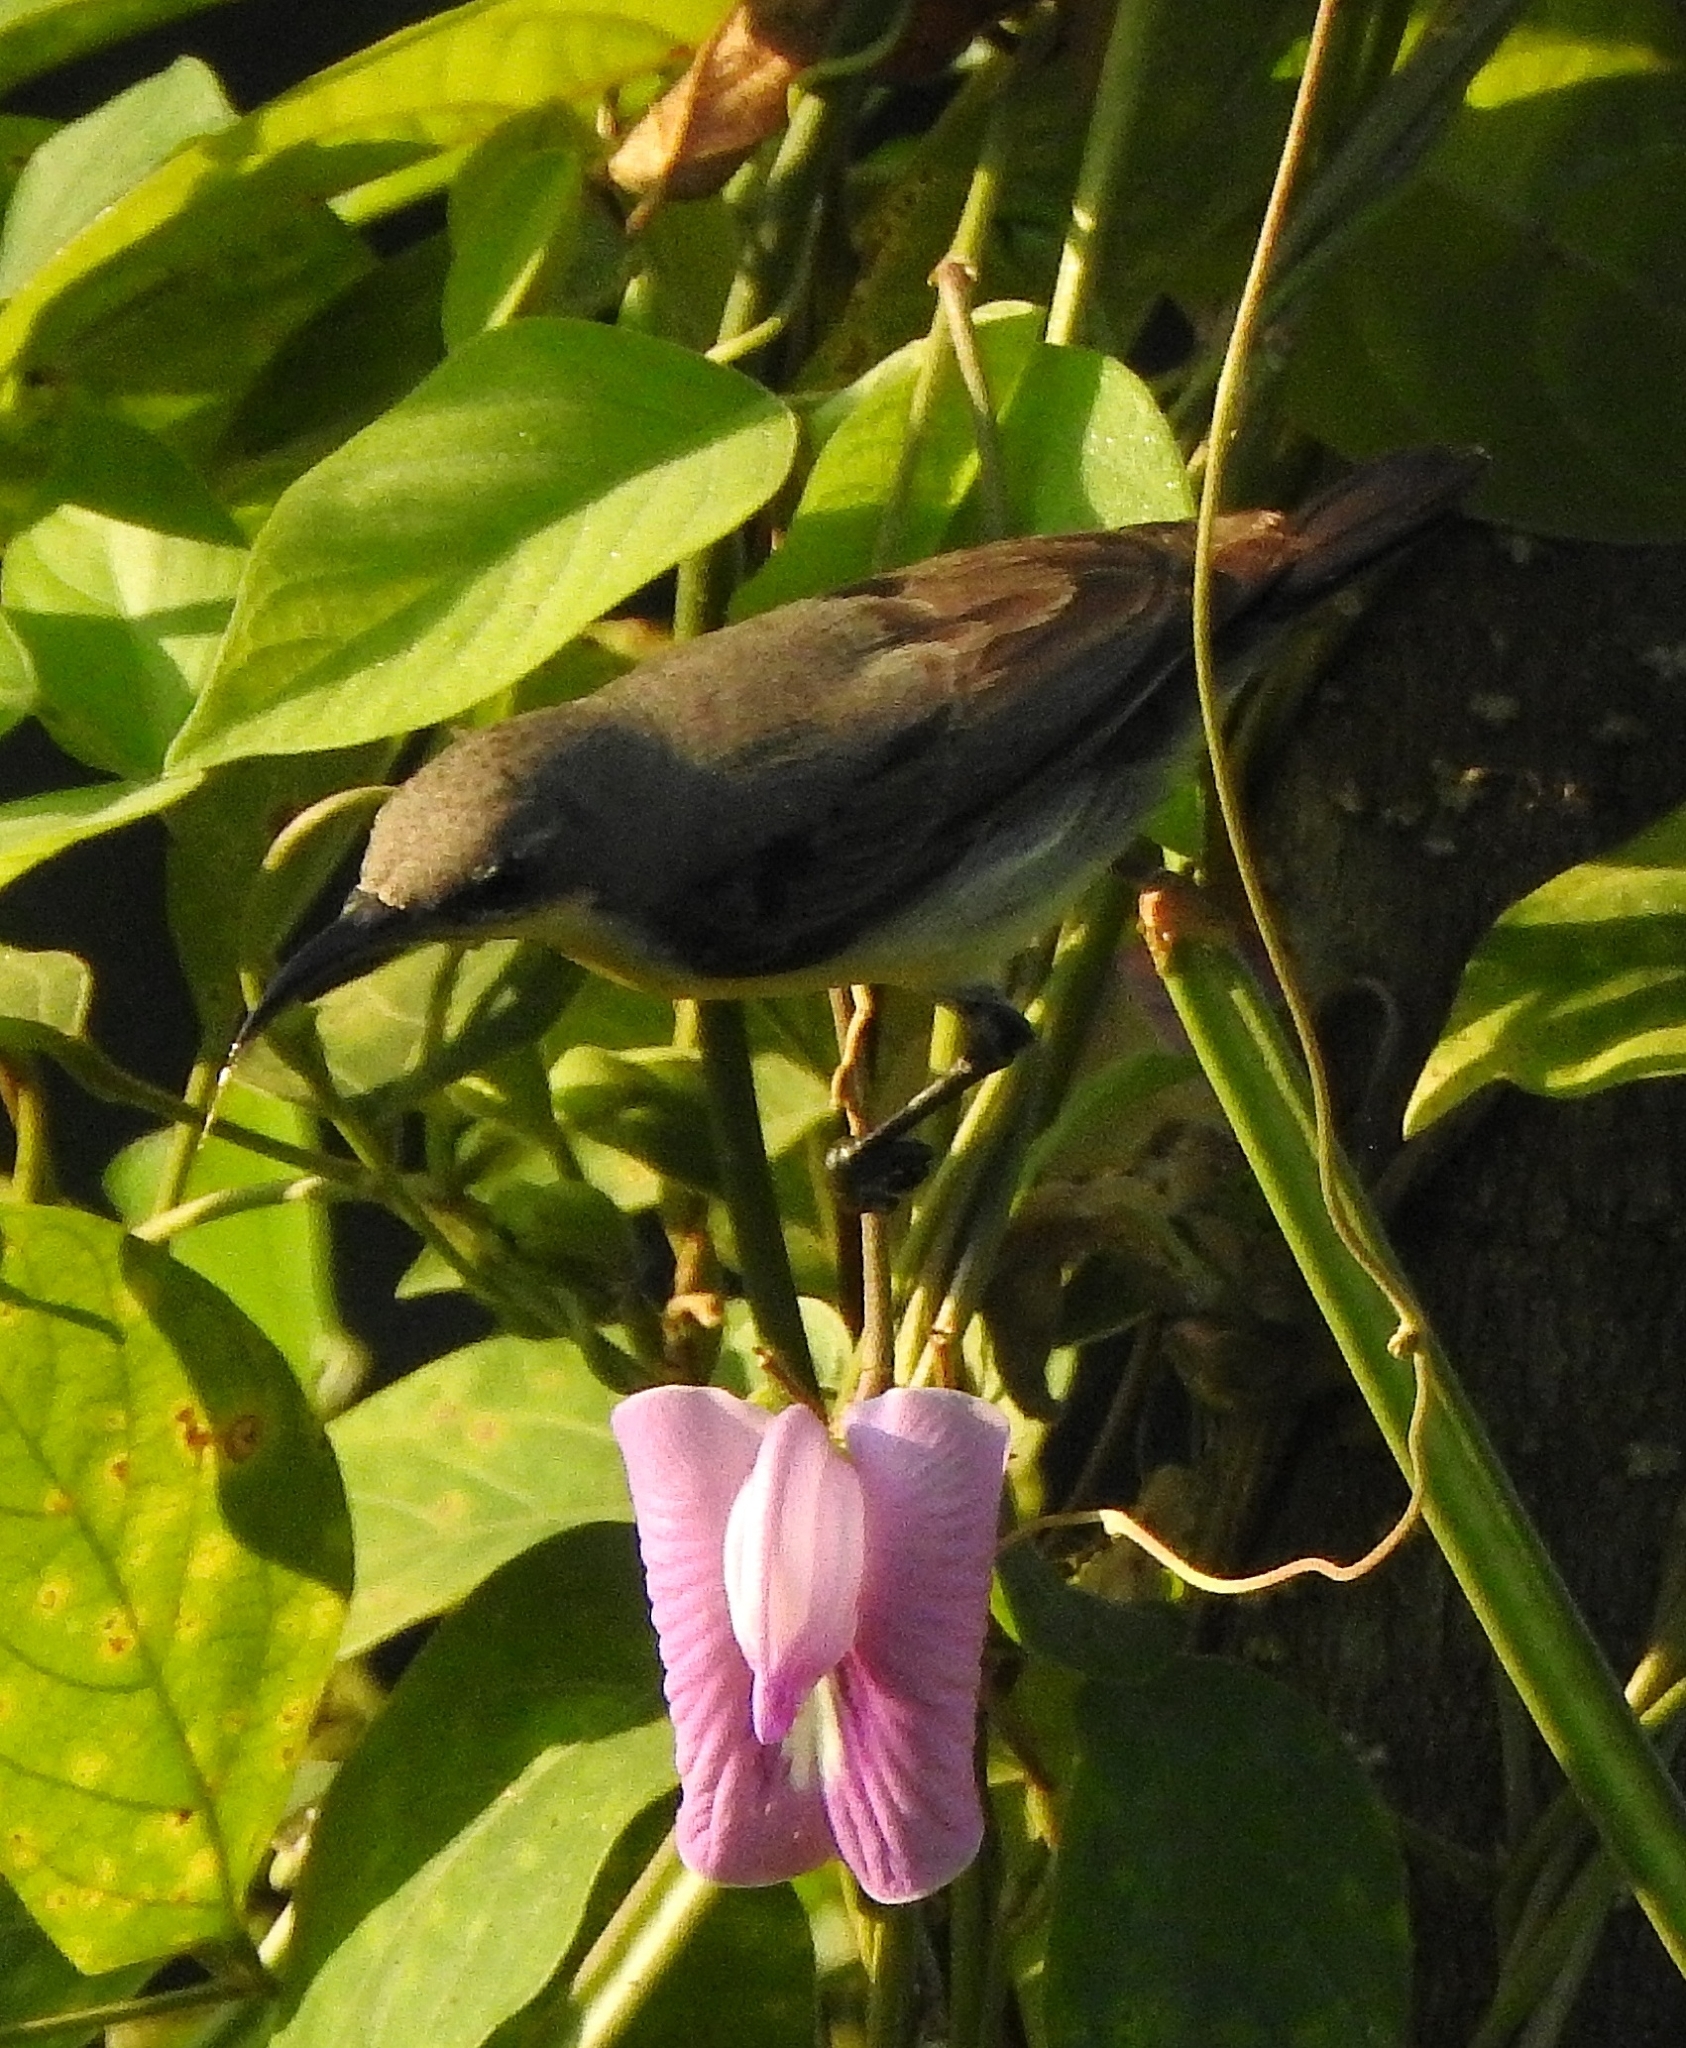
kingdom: Animalia
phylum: Chordata
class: Aves
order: Passeriformes
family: Nectariniidae
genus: Cinnyris
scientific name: Cinnyris asiaticus
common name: Purple sunbird
